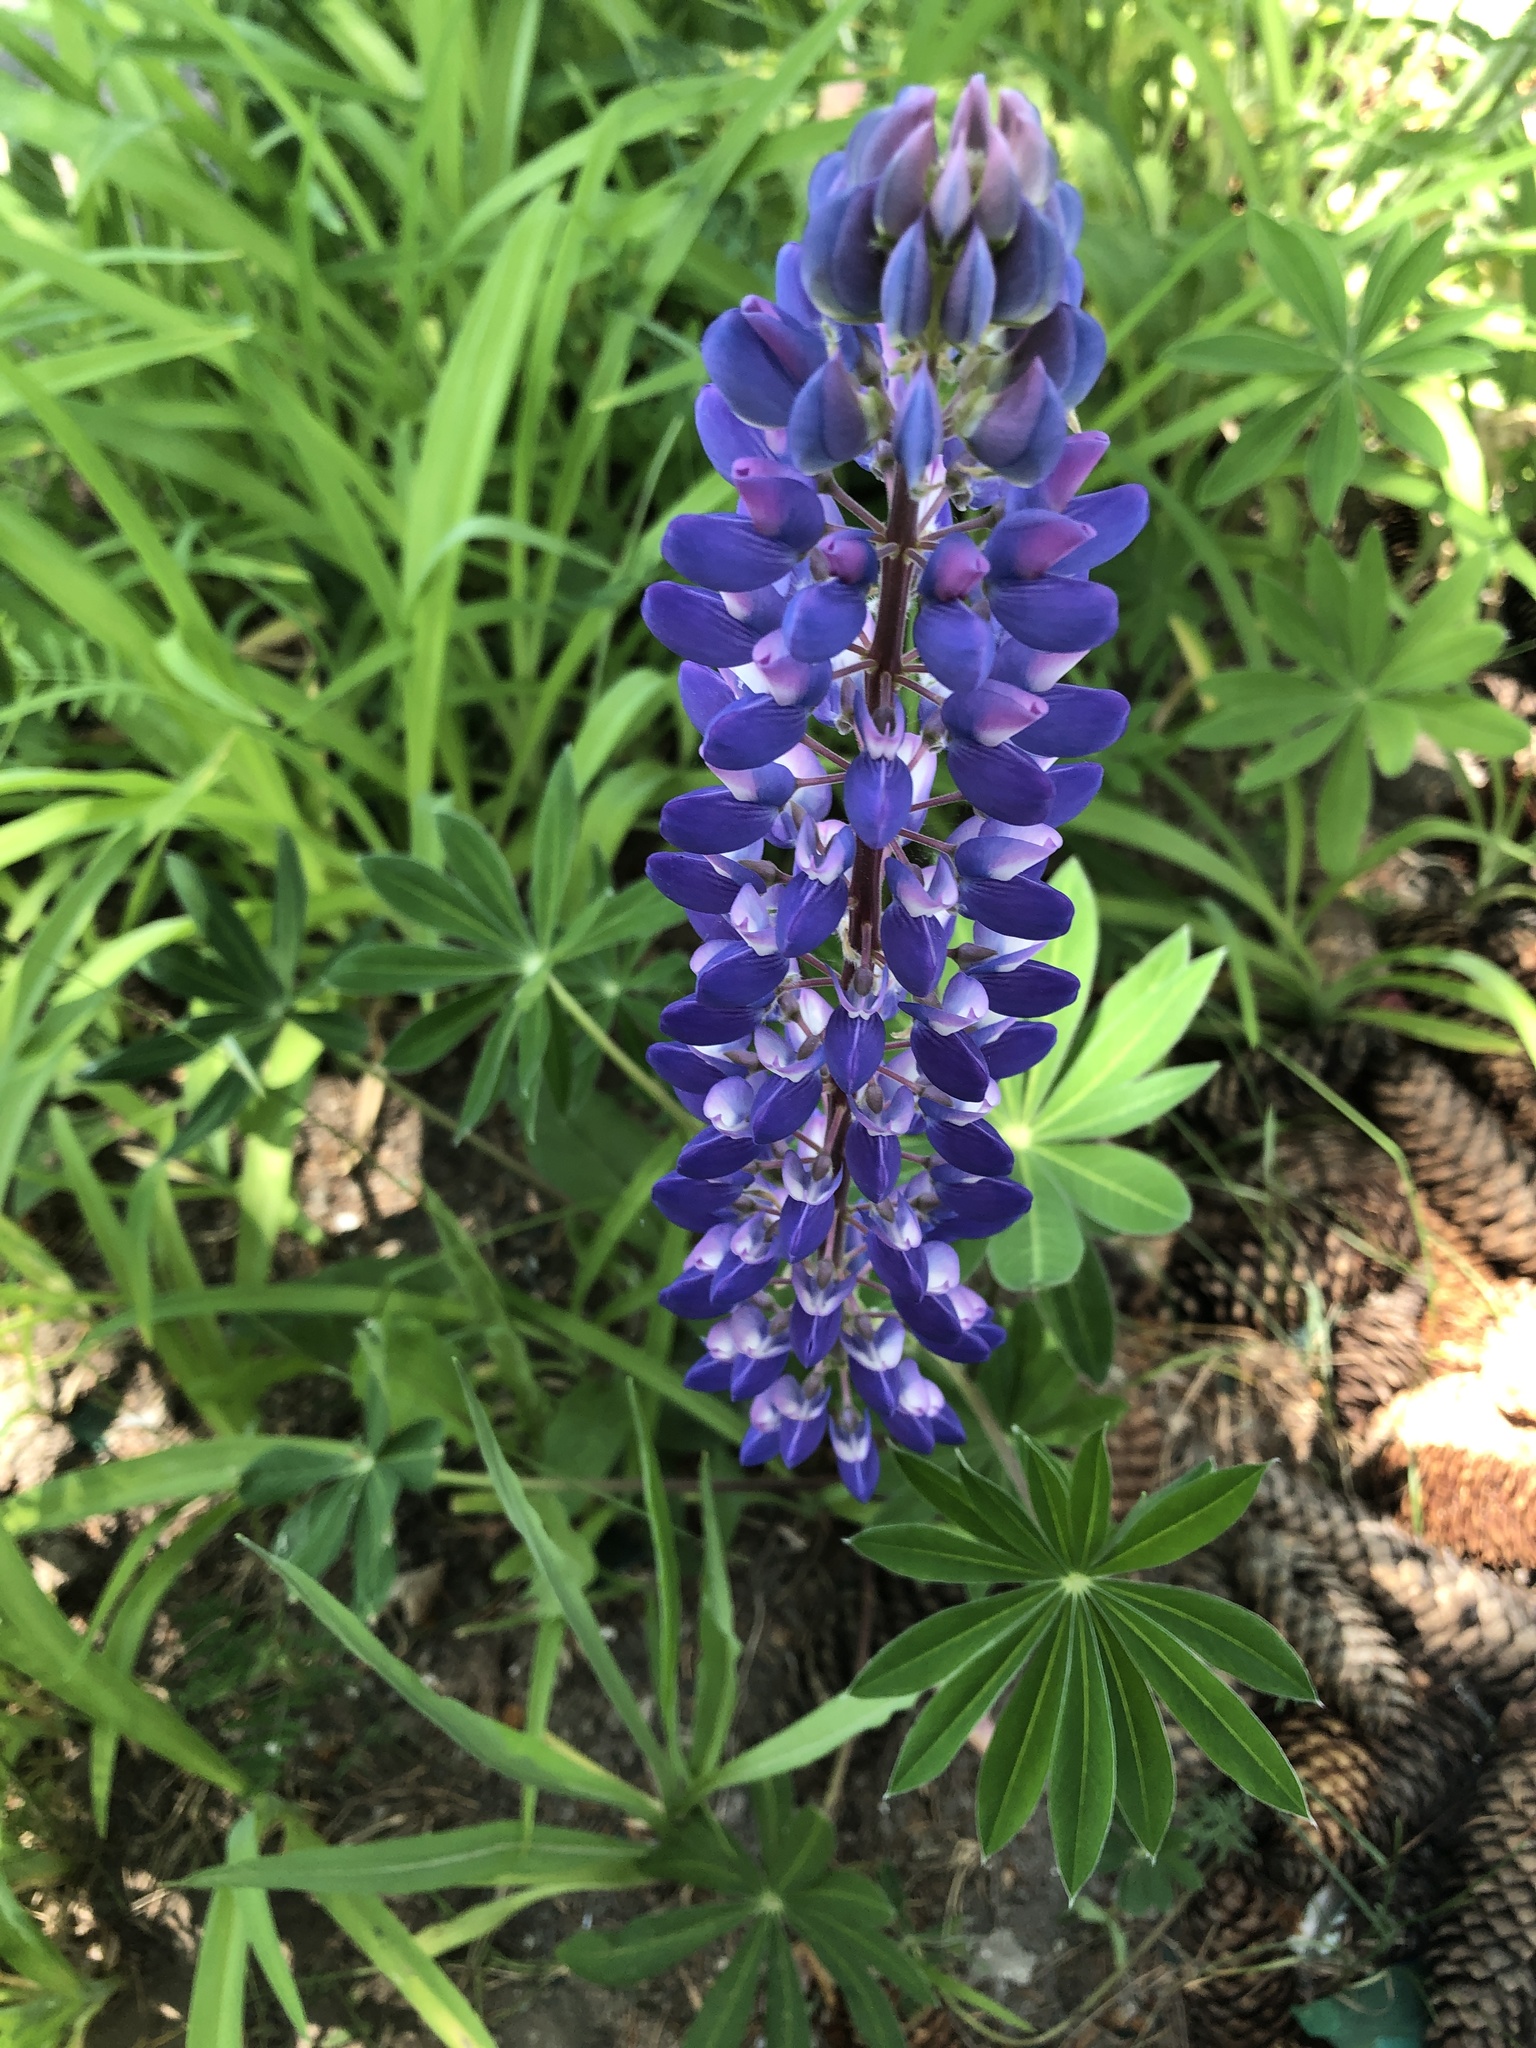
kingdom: Plantae
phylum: Tracheophyta
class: Magnoliopsida
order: Fabales
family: Fabaceae
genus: Lupinus
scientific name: Lupinus polyphyllus
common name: Garden lupin
